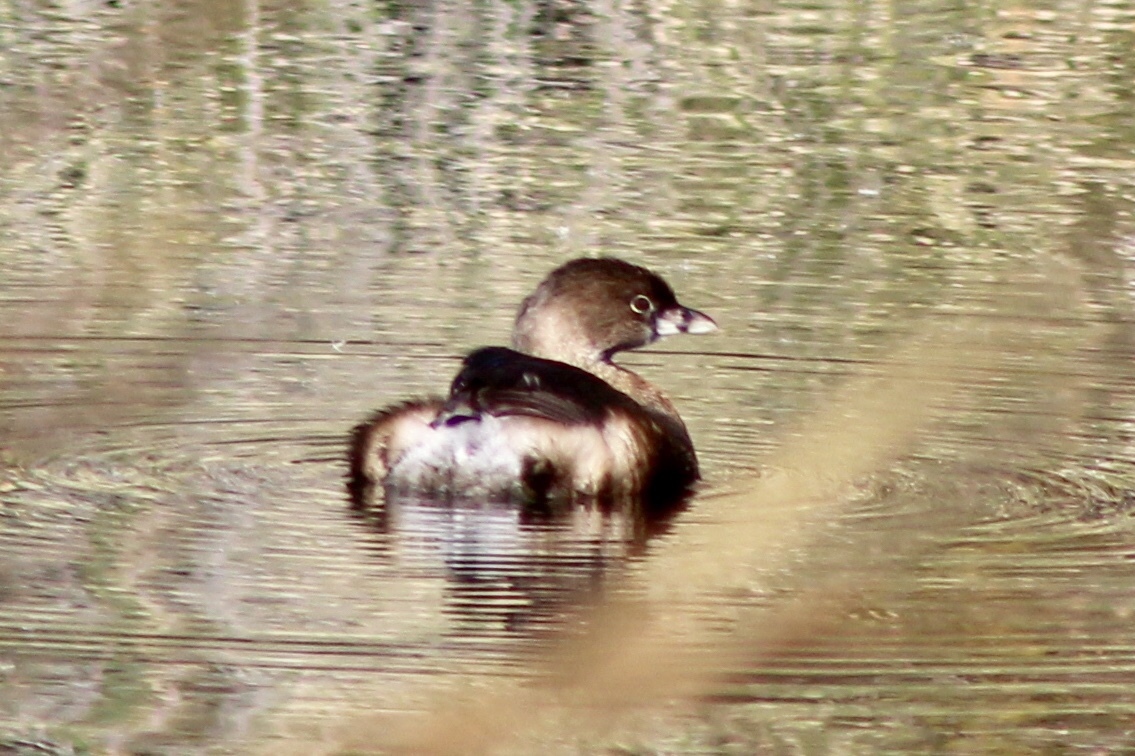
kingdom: Animalia
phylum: Chordata
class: Aves
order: Podicipediformes
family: Podicipedidae
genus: Podilymbus
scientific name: Podilymbus podiceps
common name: Pied-billed grebe
